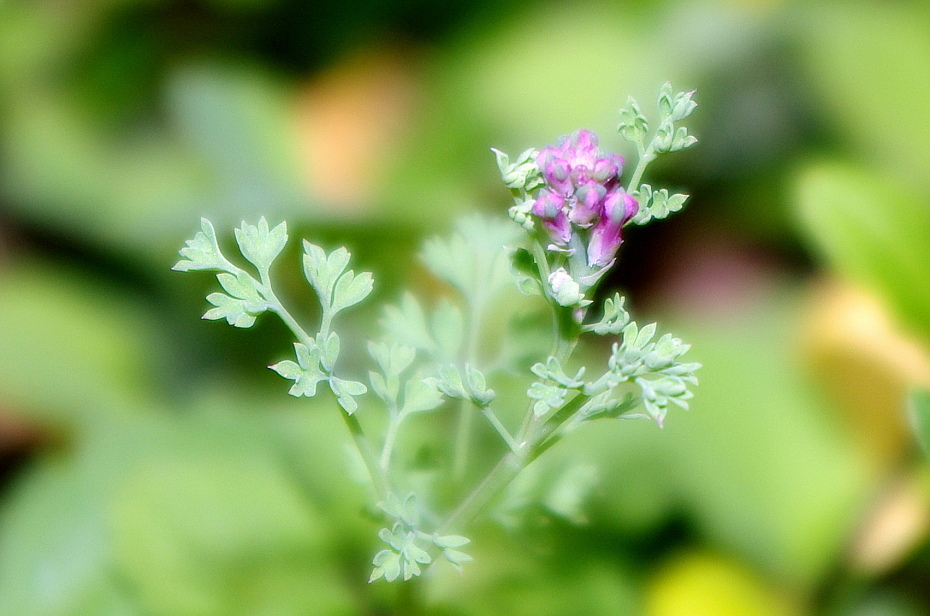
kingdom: Plantae
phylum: Tracheophyta
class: Magnoliopsida
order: Ranunculales
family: Papaveraceae
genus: Fumaria
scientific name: Fumaria officinalis
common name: Common fumitory
